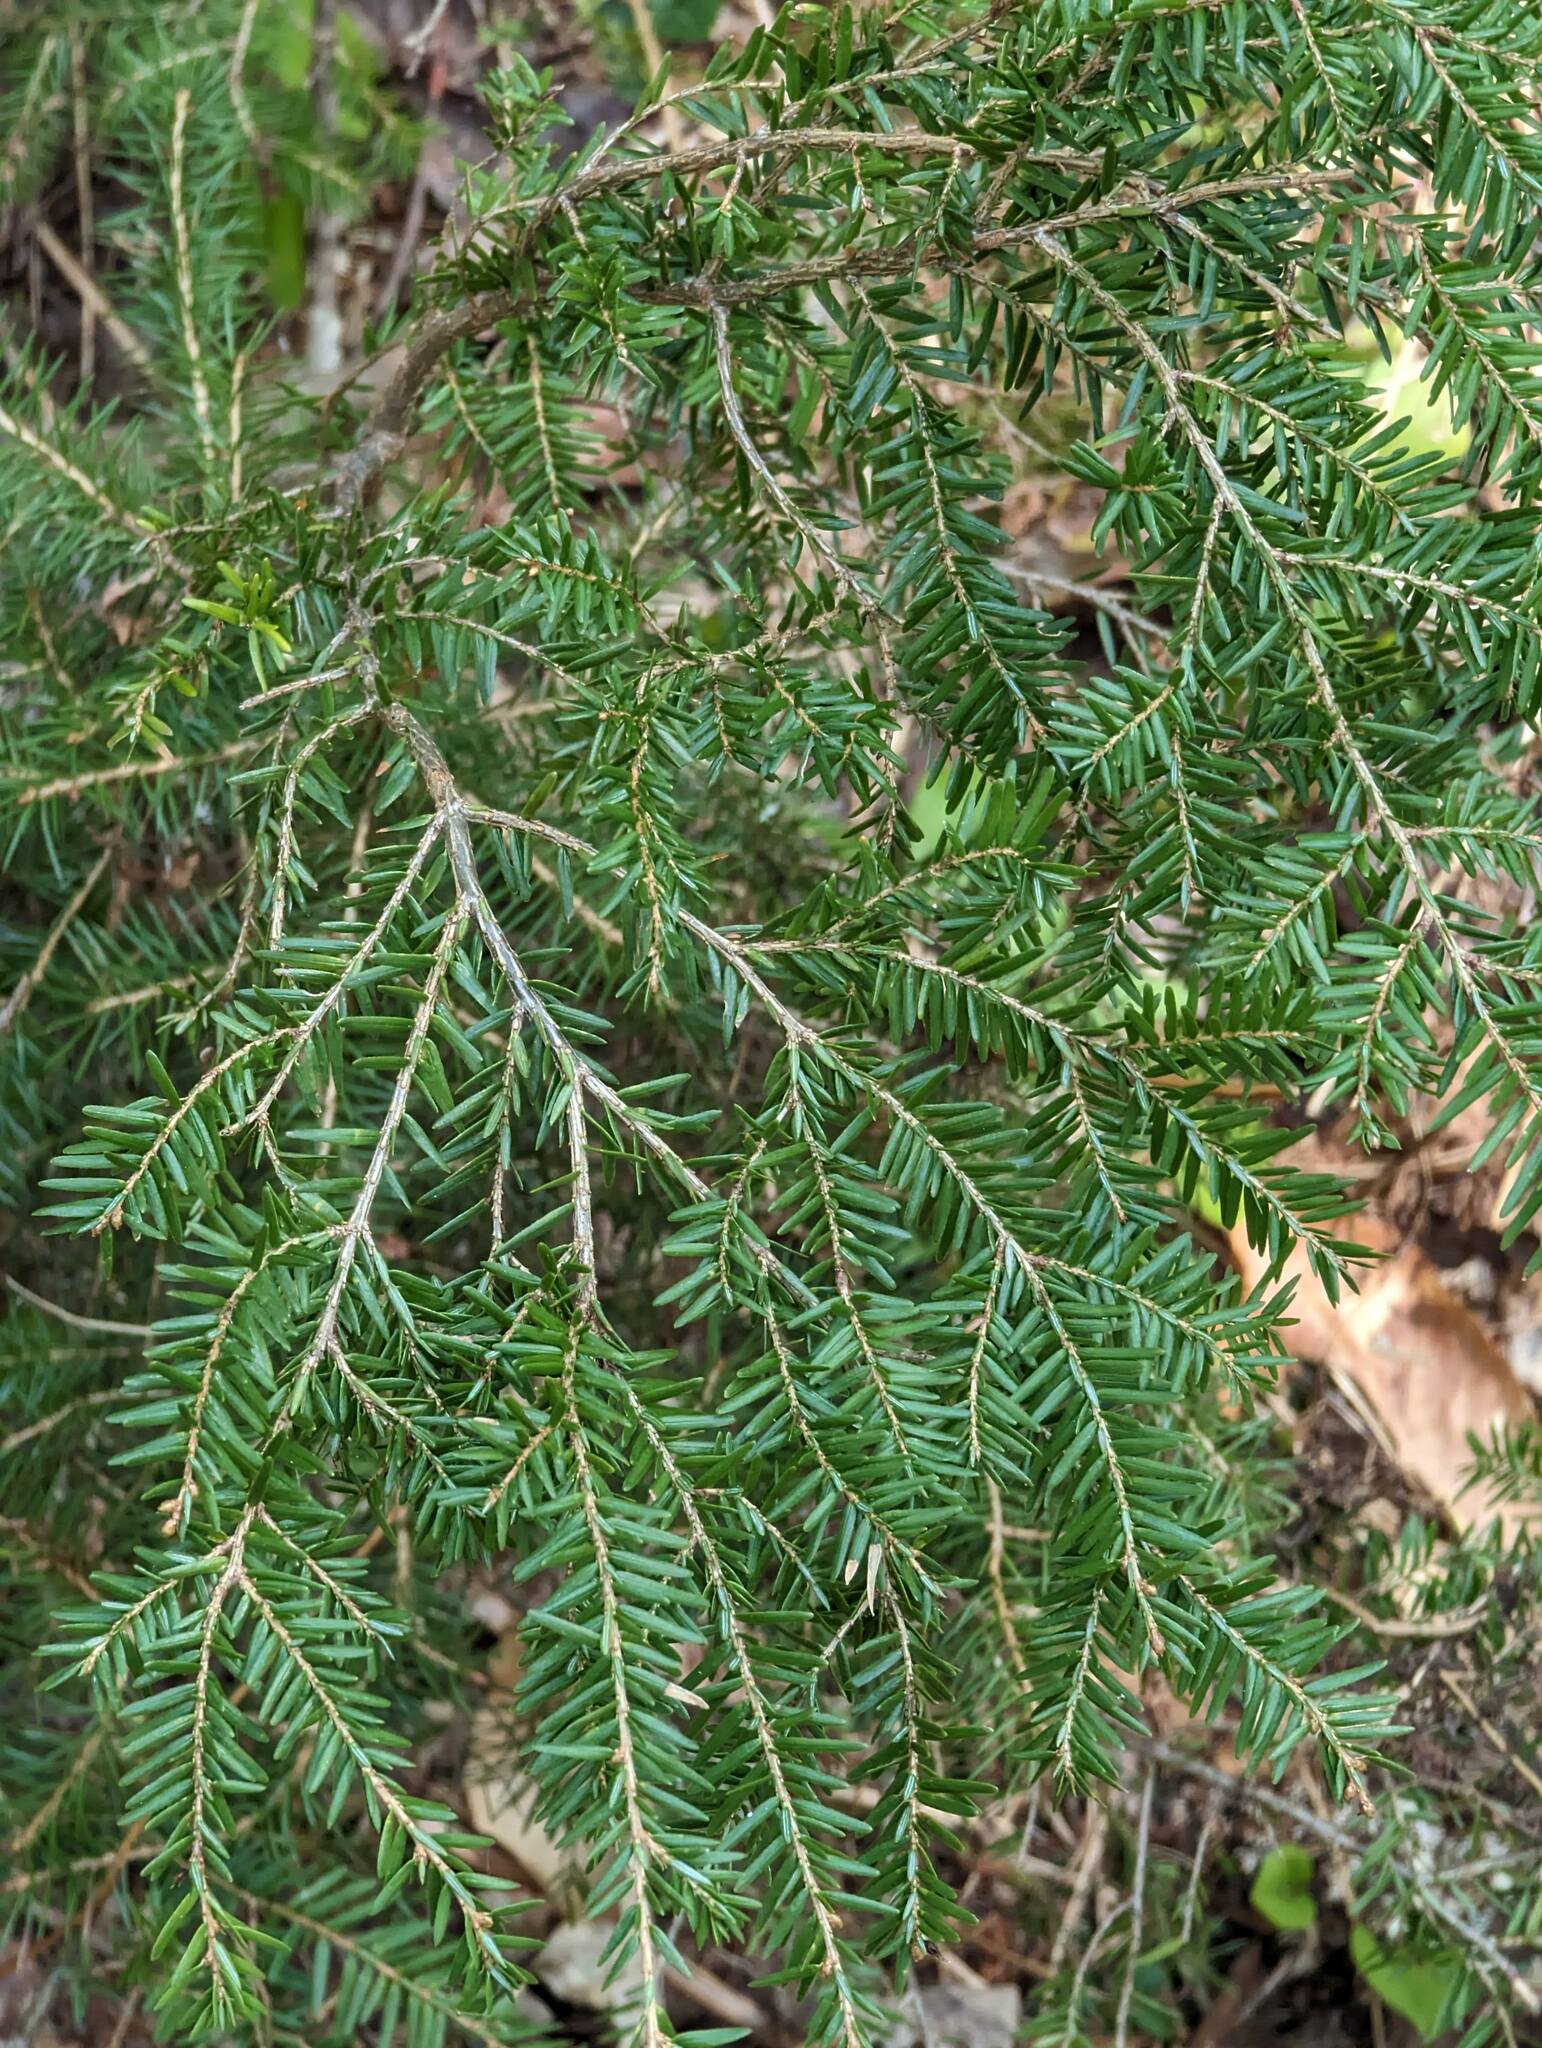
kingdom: Plantae
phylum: Tracheophyta
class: Pinopsida
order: Pinales
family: Pinaceae
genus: Tsuga
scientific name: Tsuga canadensis
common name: Eastern hemlock
